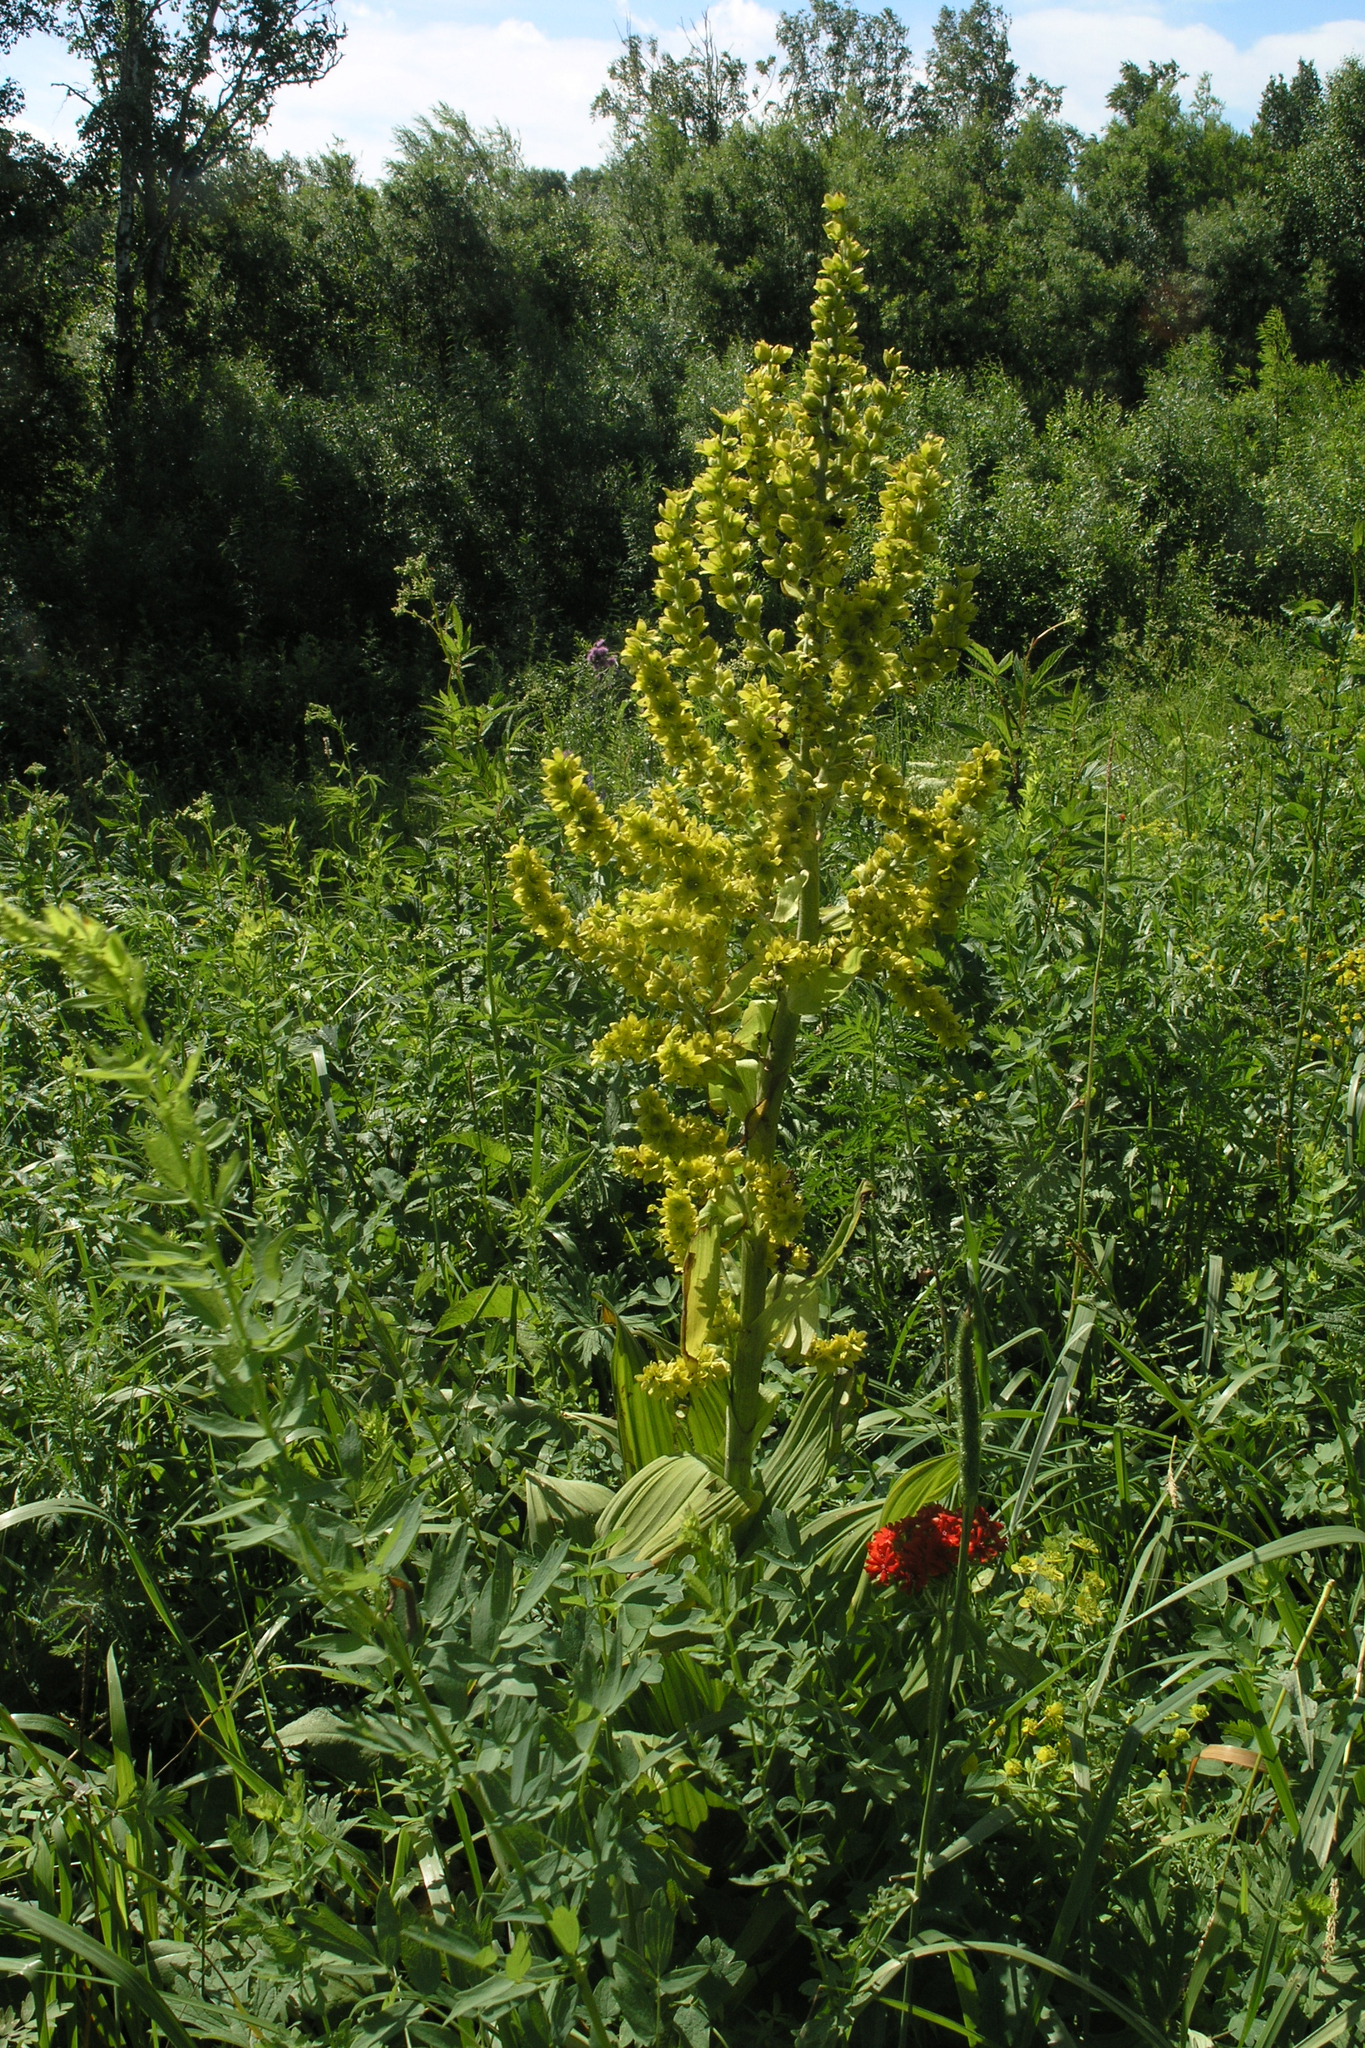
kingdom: Plantae
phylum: Tracheophyta
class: Liliopsida
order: Liliales
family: Melanthiaceae
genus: Veratrum
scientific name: Veratrum lobelianum
